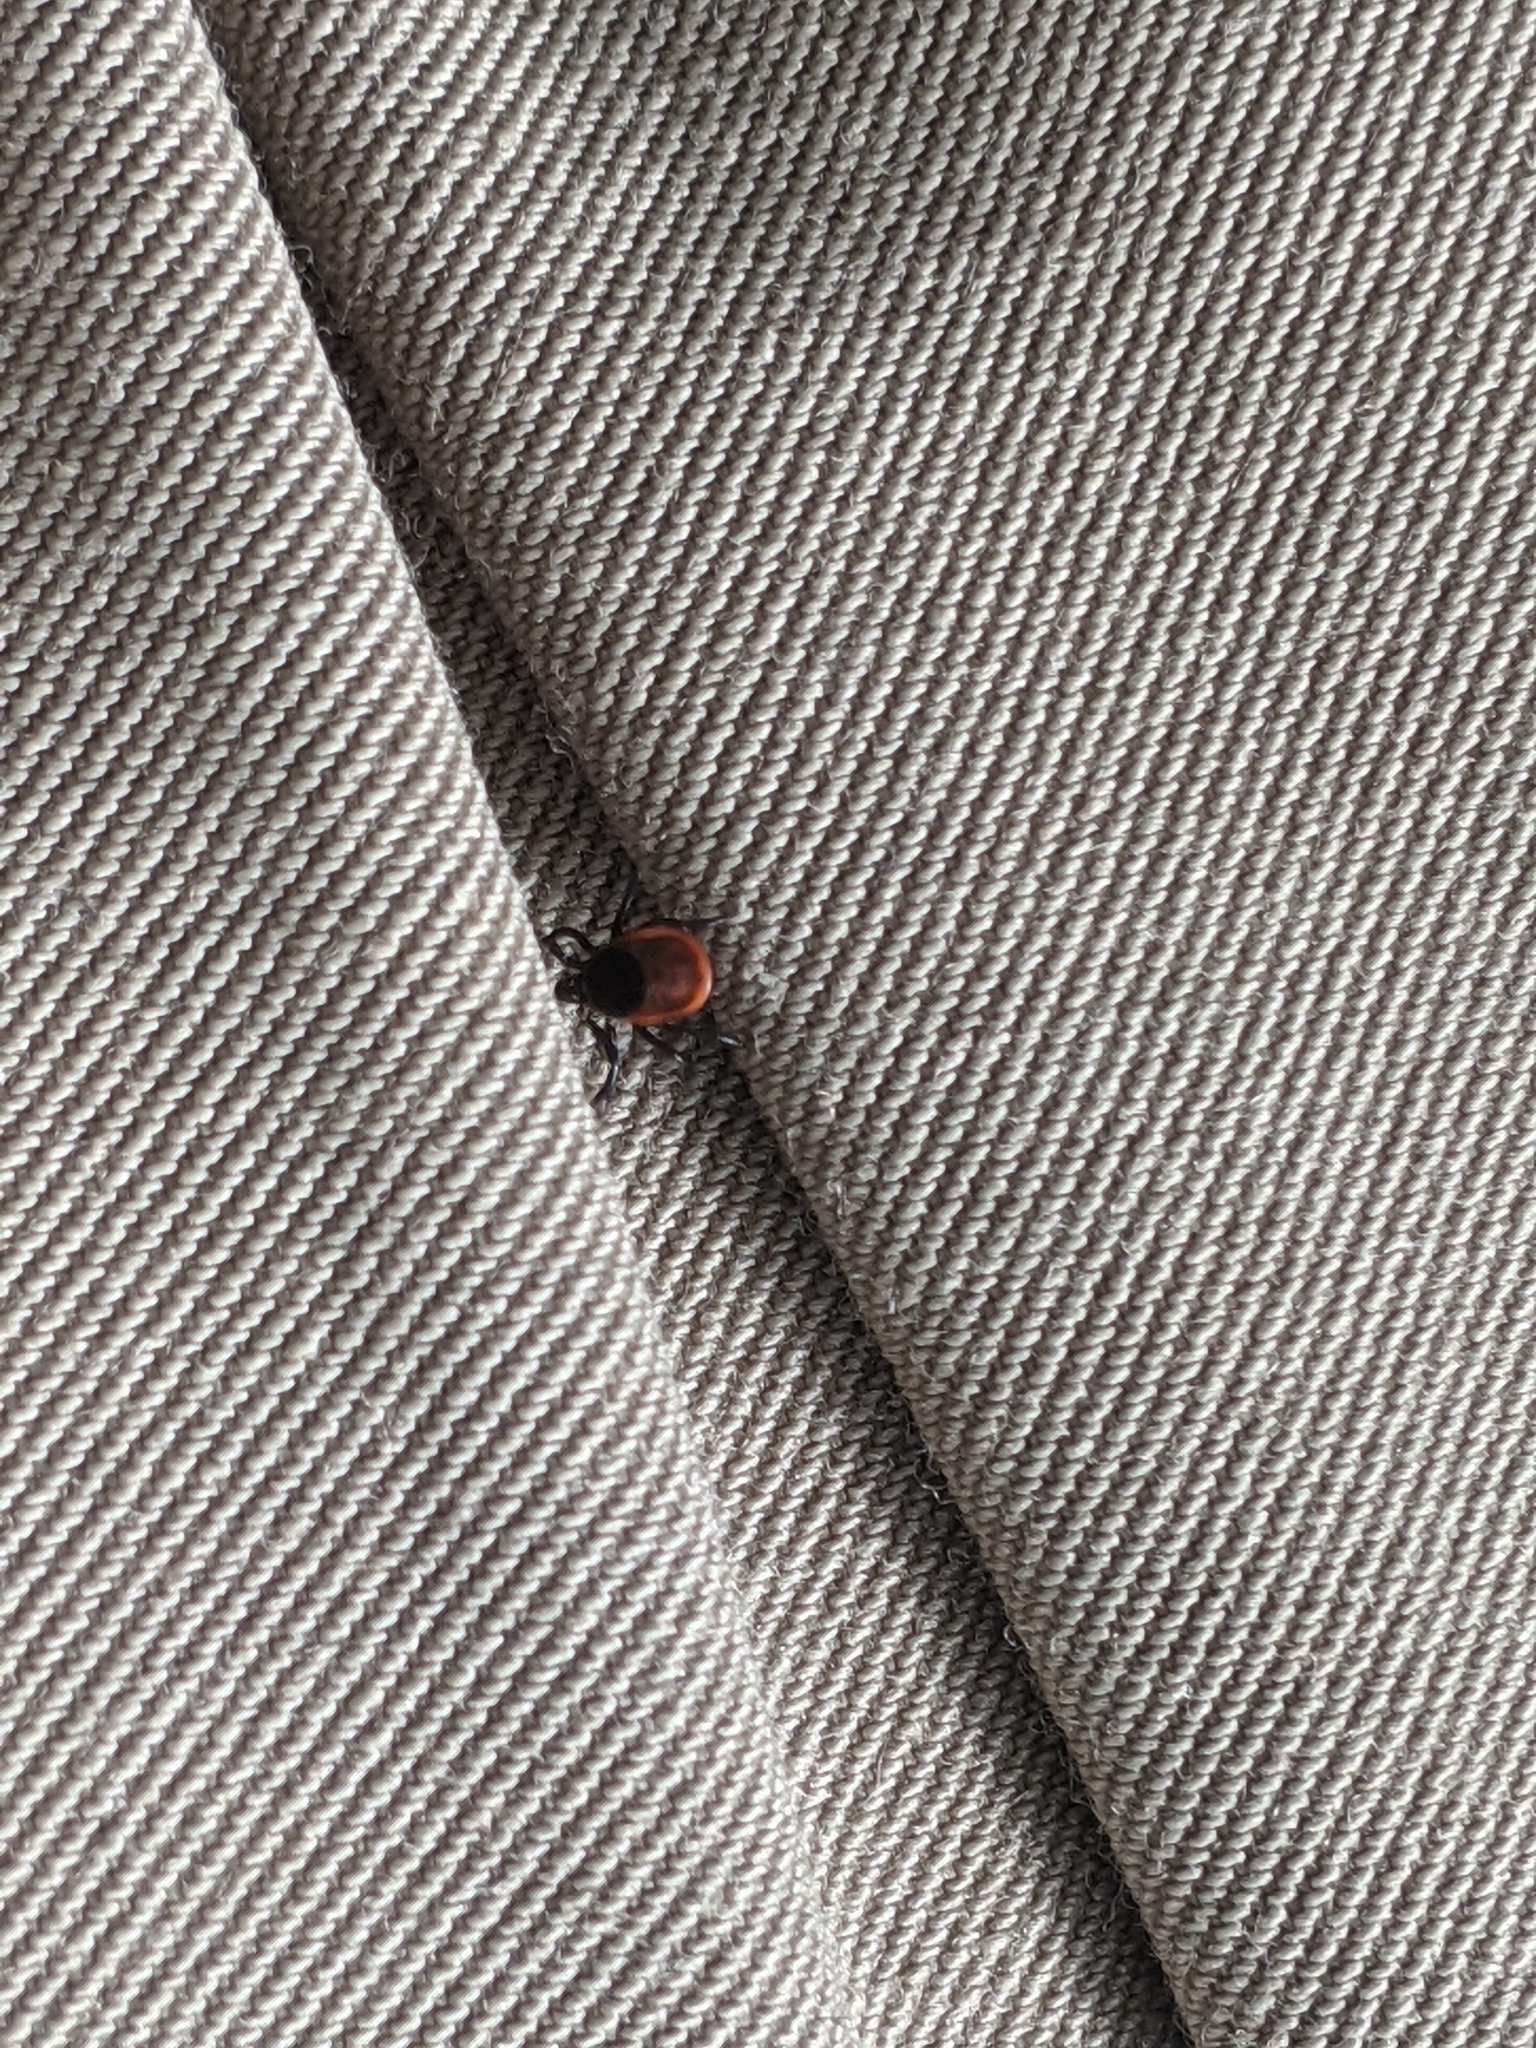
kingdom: Animalia
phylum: Arthropoda
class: Arachnida
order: Ixodida
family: Ixodidae
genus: Ixodes
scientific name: Ixodes scapularis
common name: Black legged tick
